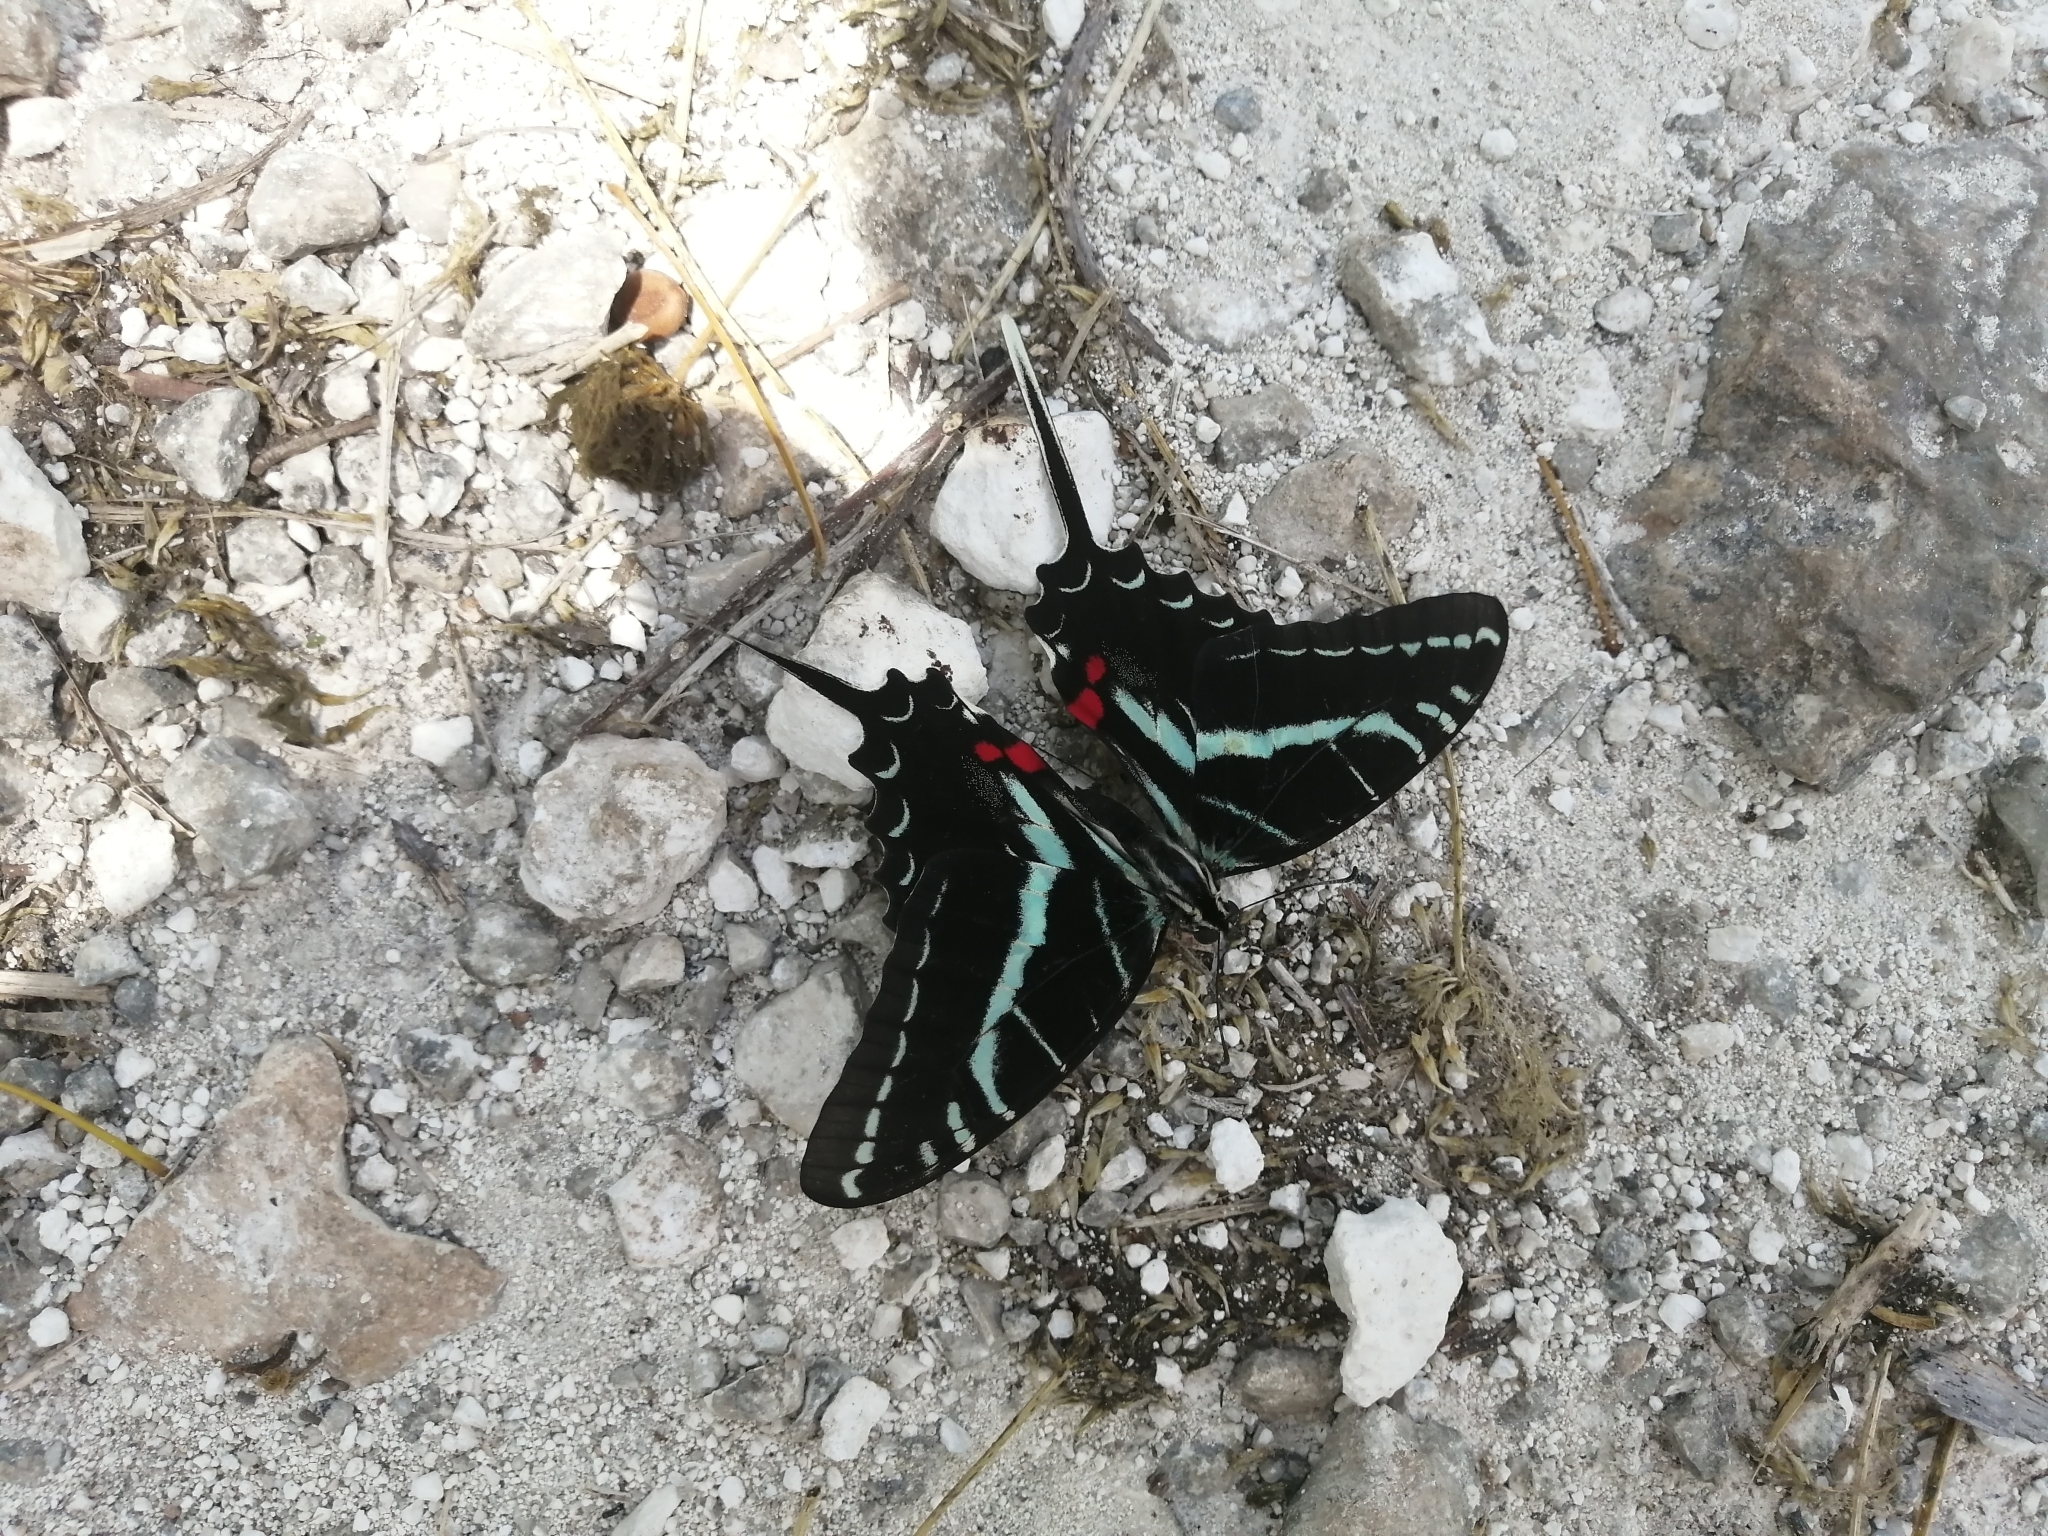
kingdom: Animalia
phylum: Arthropoda
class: Insecta
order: Lepidoptera
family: Papilionidae
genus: Protographium
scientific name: Protographium philolaus
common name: Dark zebra swallowtail
